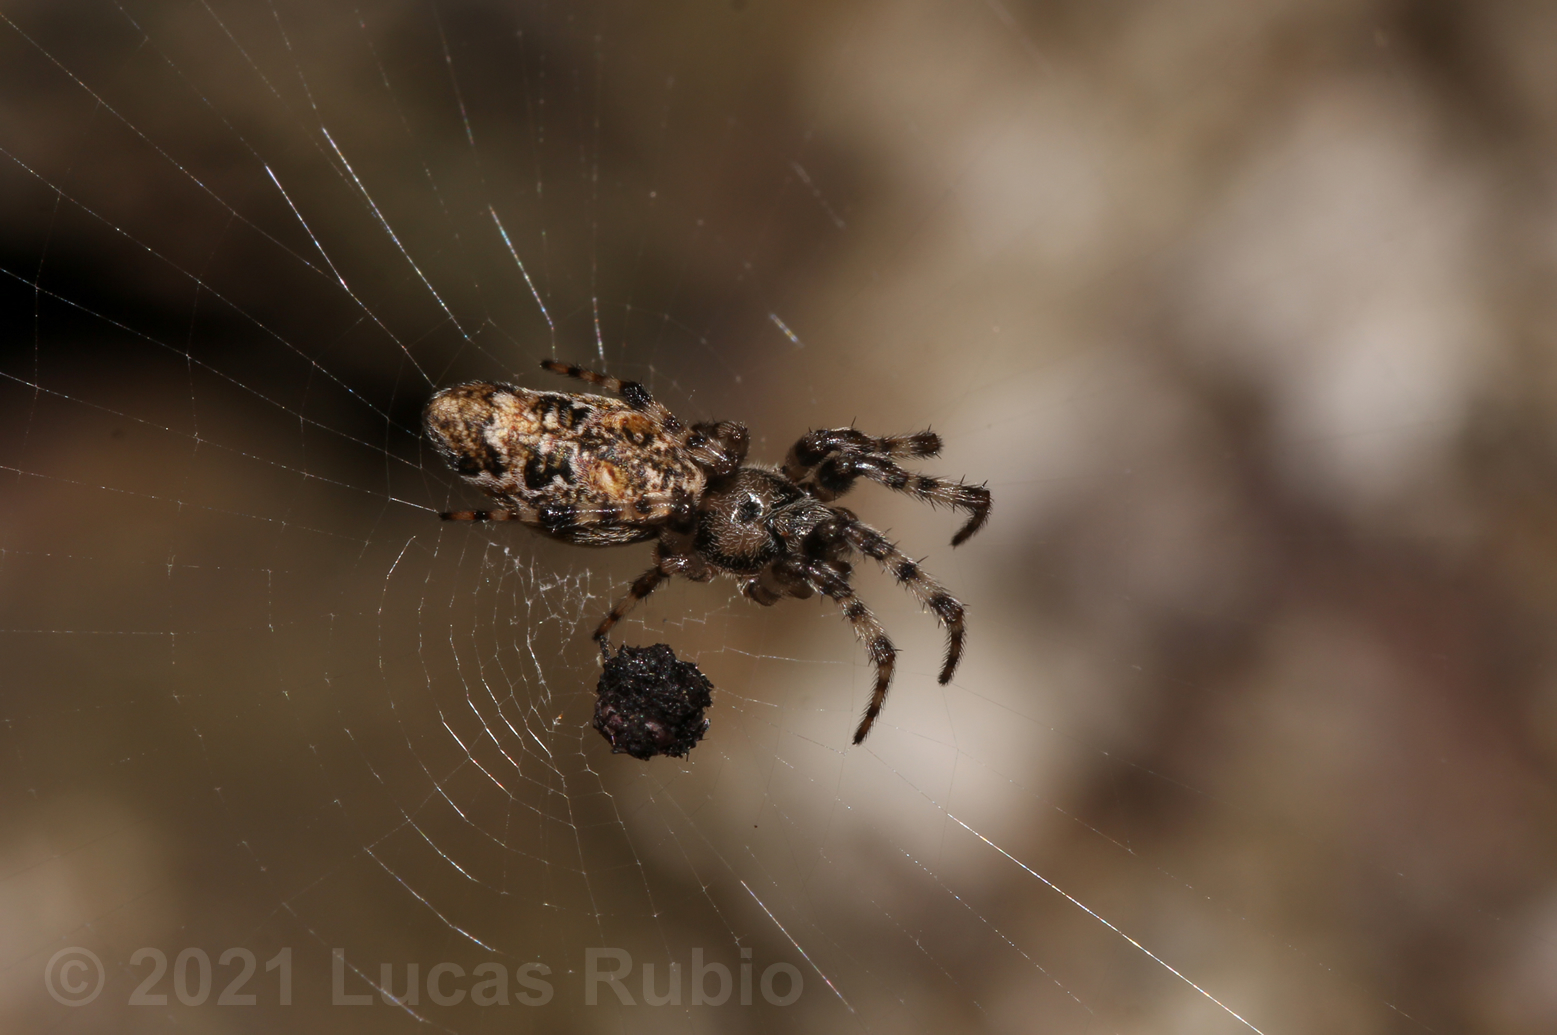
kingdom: Animalia
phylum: Arthropoda
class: Arachnida
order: Araneae
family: Araneidae
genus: Cyclosa
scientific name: Cyclosa machadinho
